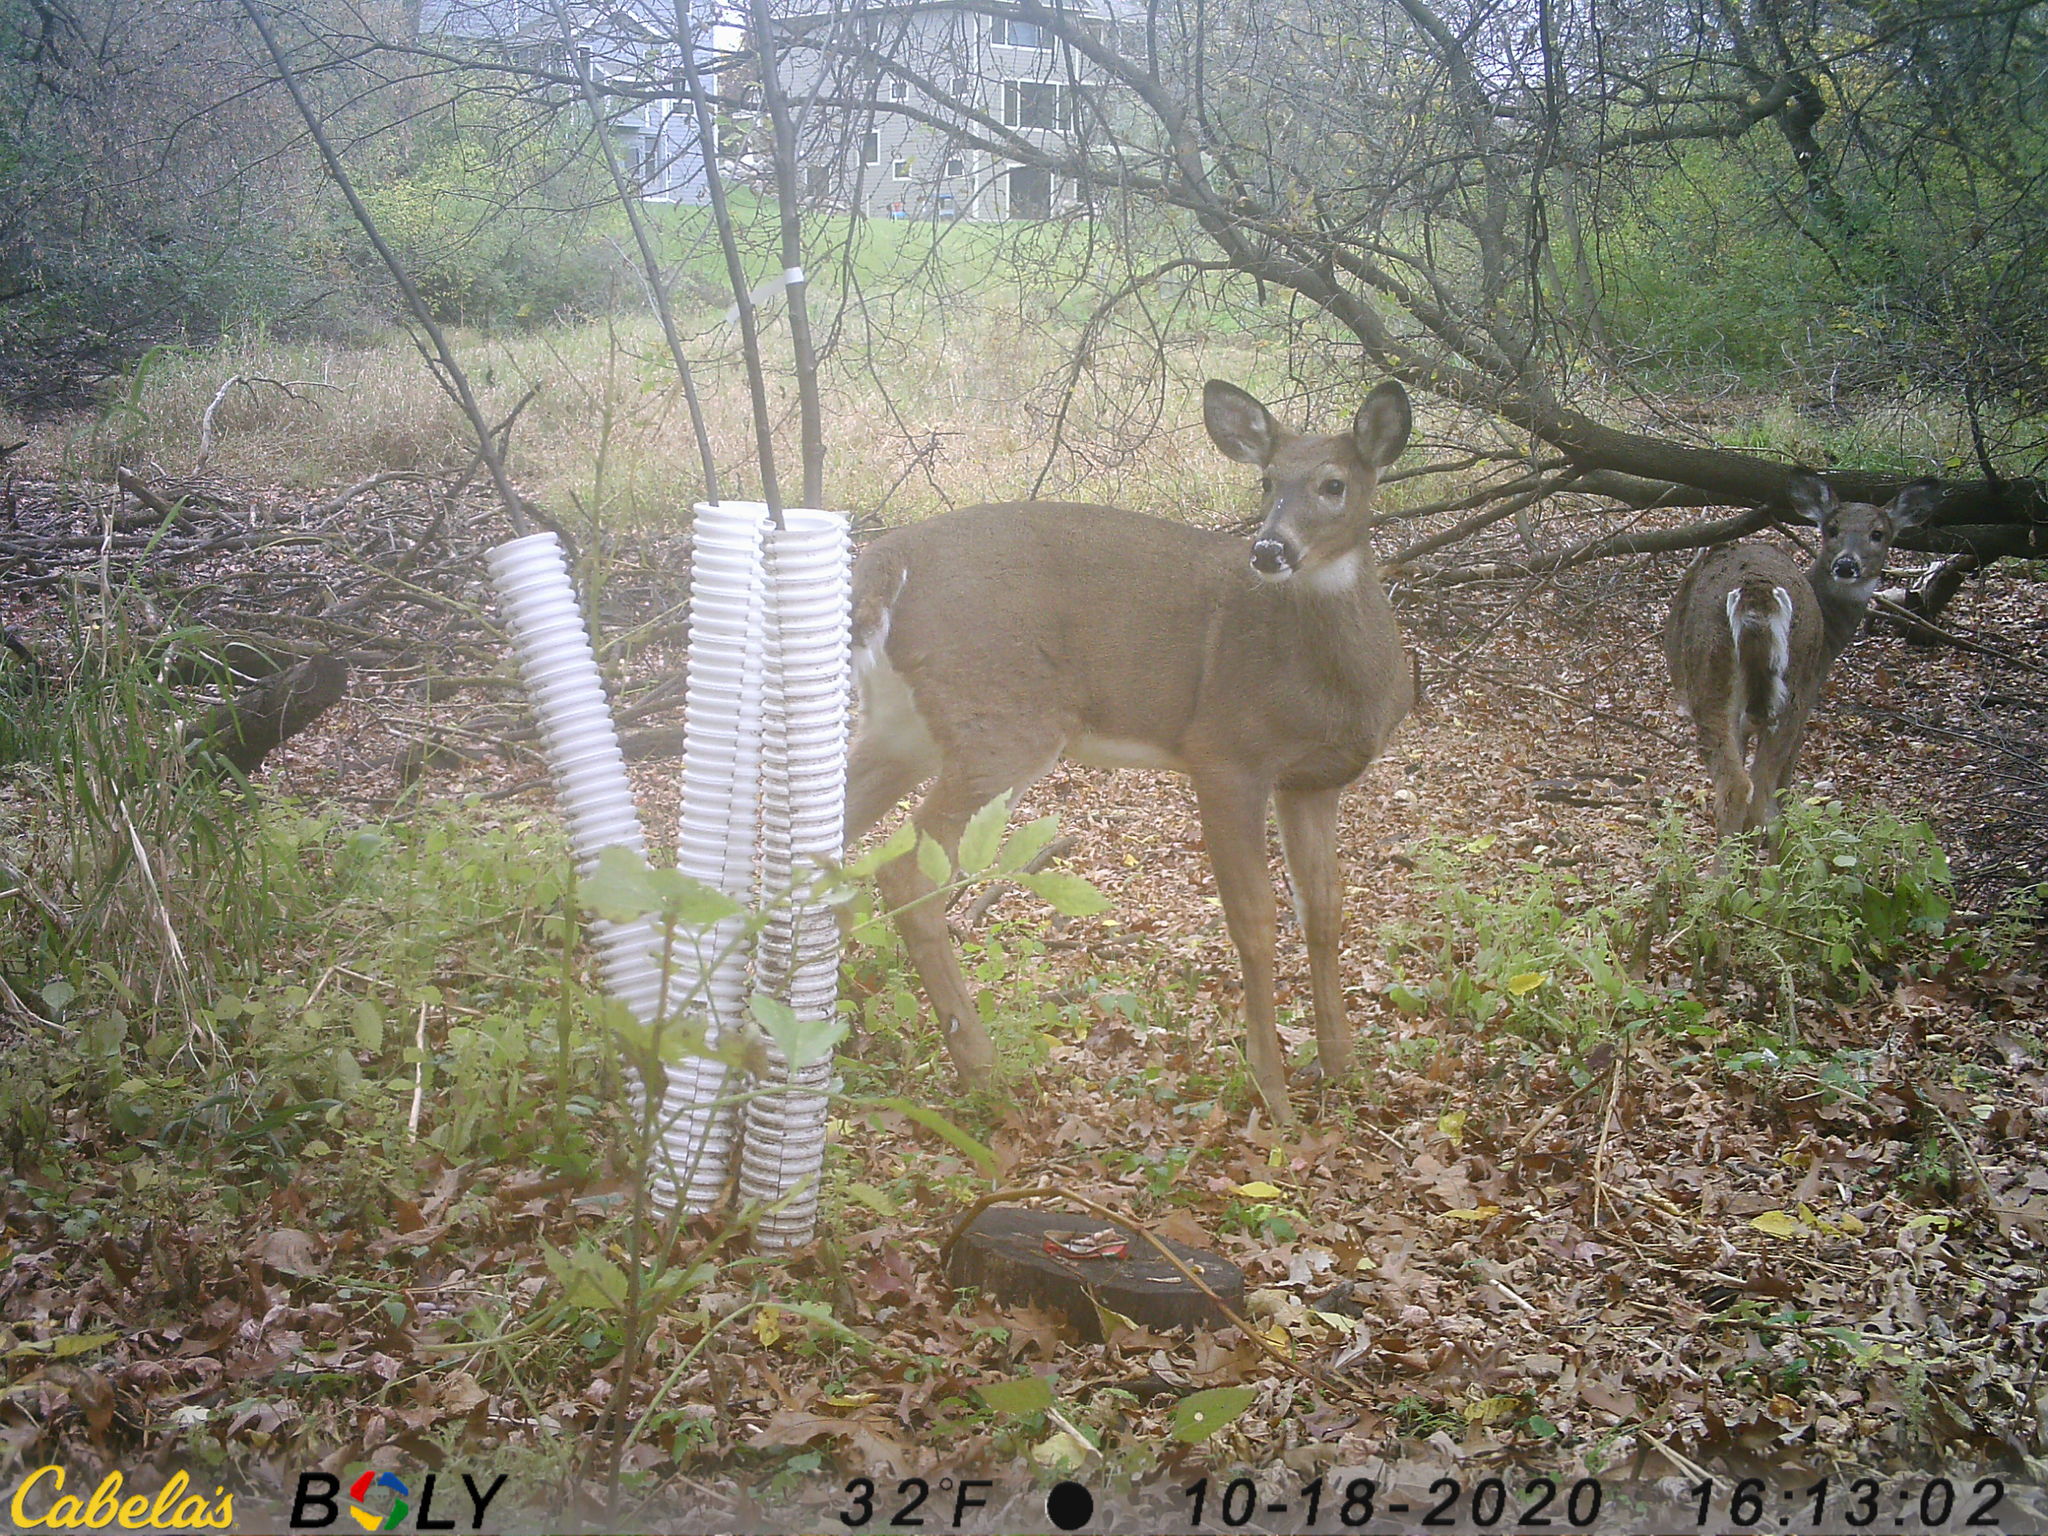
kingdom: Animalia
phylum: Chordata
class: Mammalia
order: Artiodactyla
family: Cervidae
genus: Odocoileus
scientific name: Odocoileus virginianus
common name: White-tailed deer
